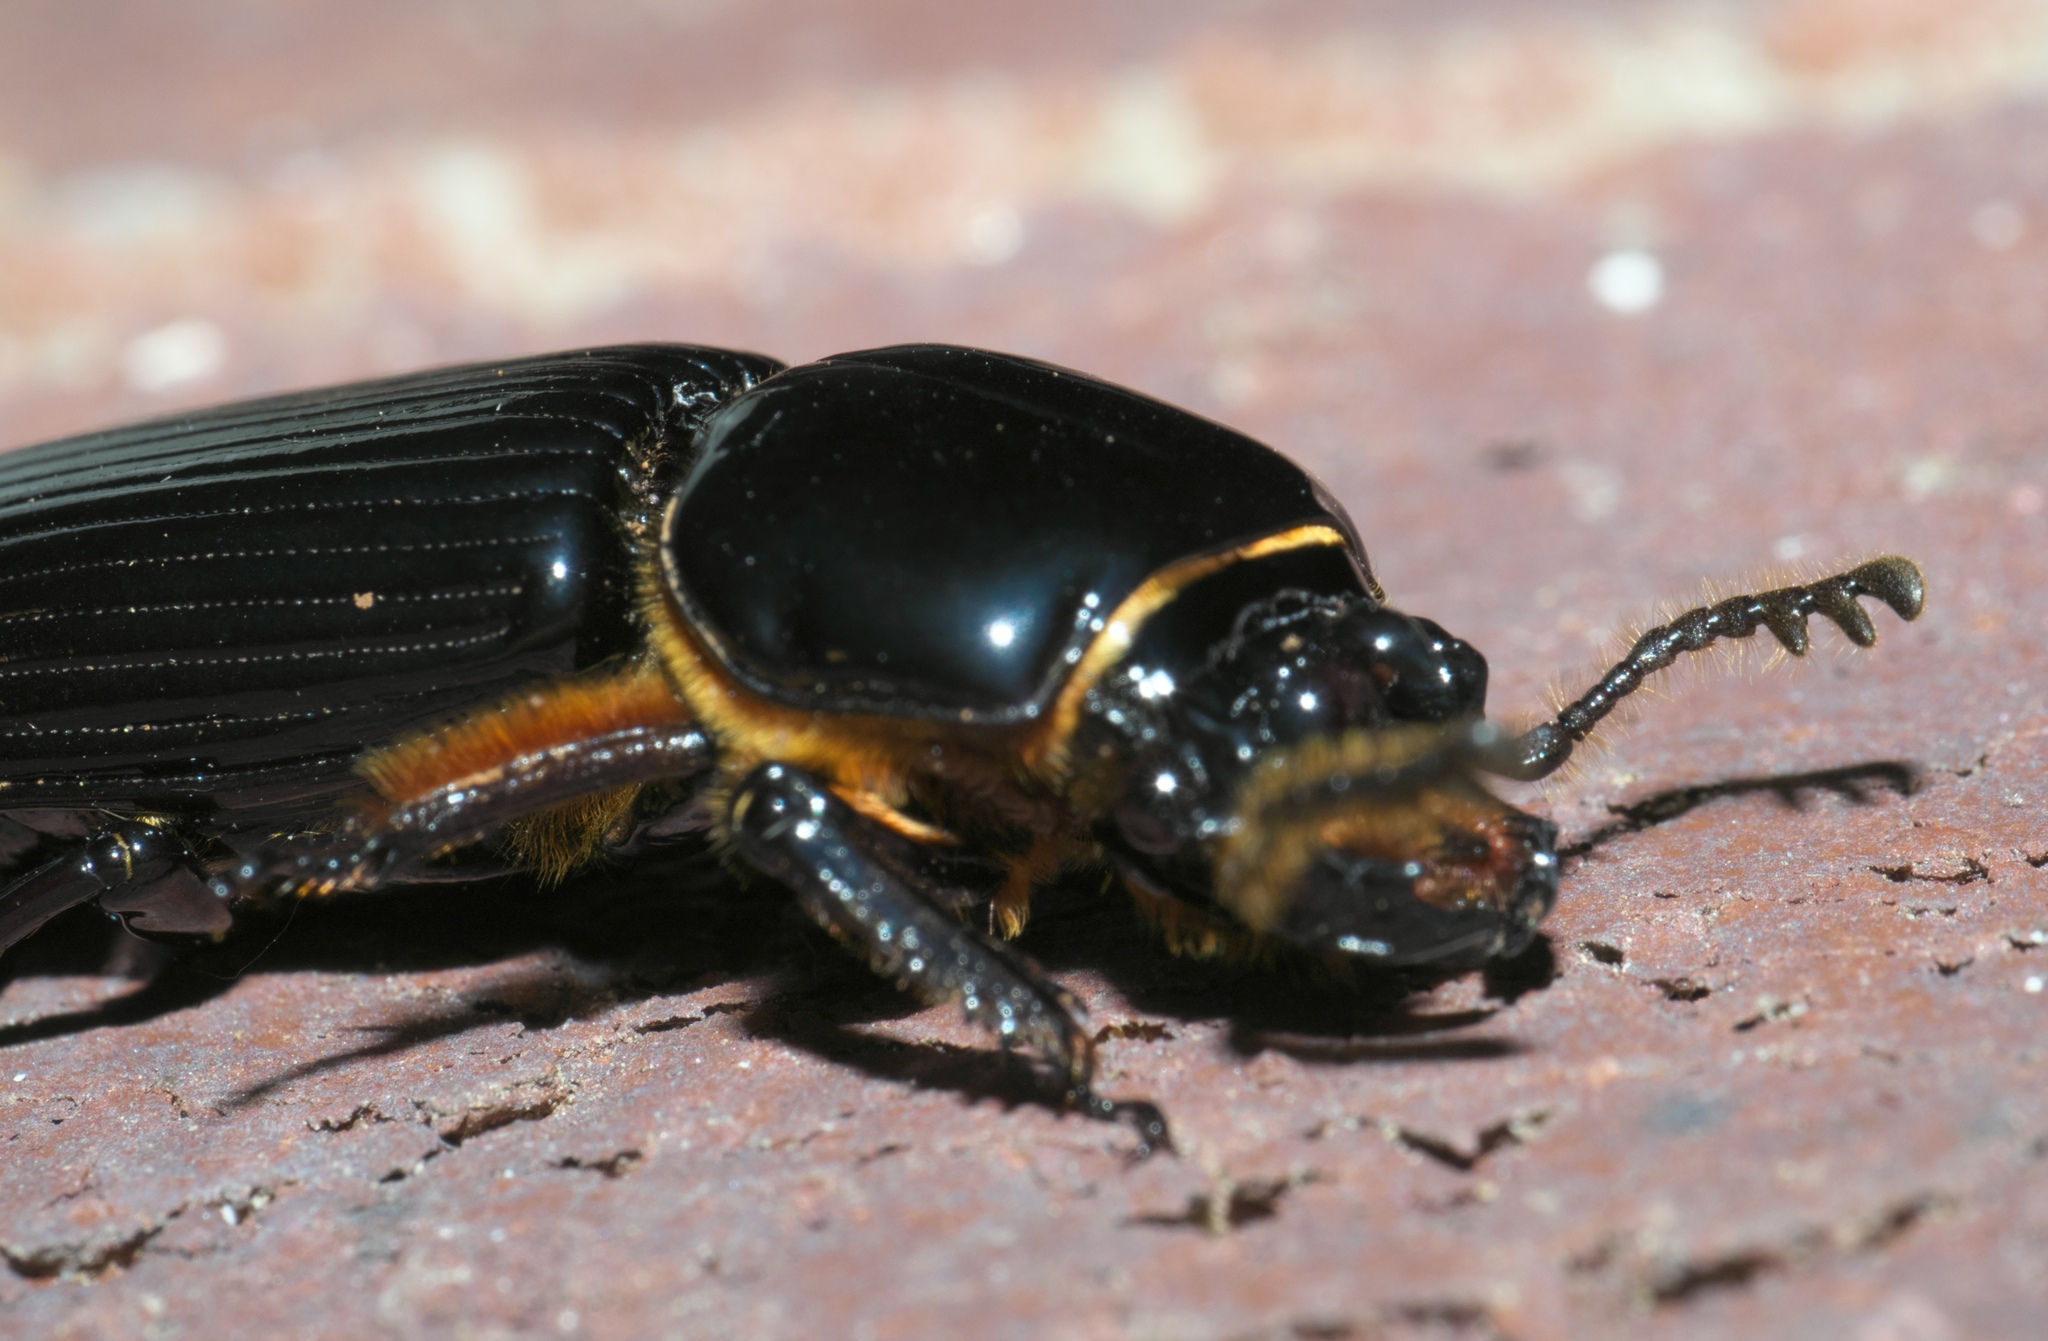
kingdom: Animalia
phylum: Arthropoda
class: Insecta
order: Coleoptera
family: Passalidae
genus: Odontotaenius
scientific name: Odontotaenius disjunctus
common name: Patent leather beetle
